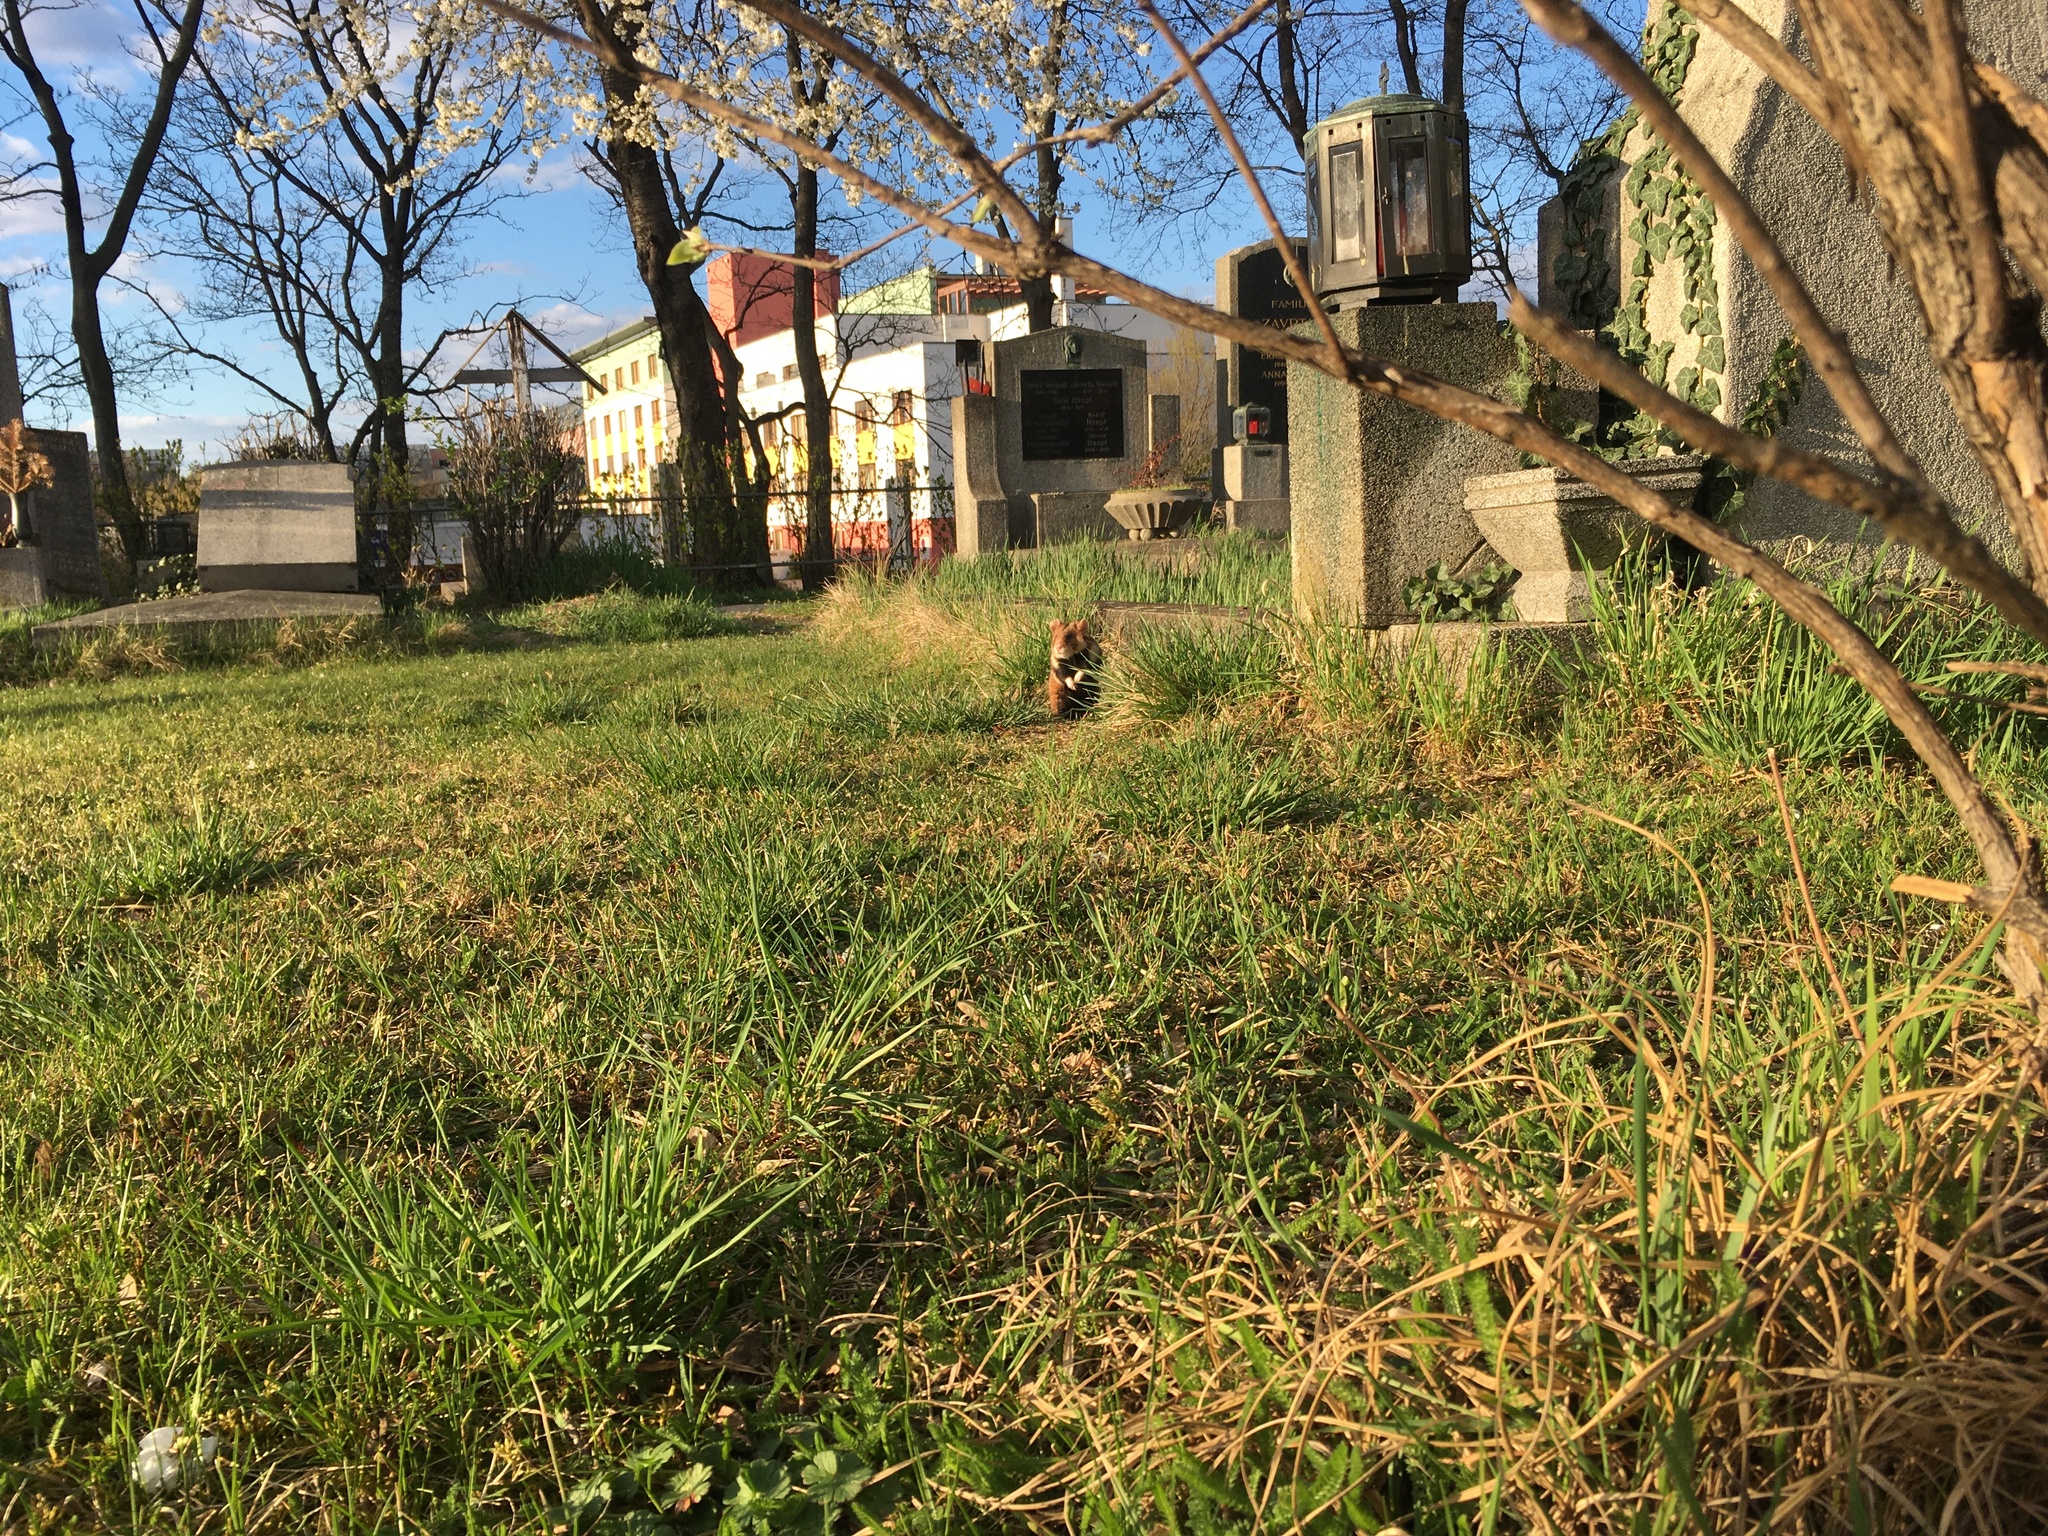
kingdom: Animalia
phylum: Chordata
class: Mammalia
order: Rodentia
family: Cricetidae
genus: Cricetus
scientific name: Cricetus cricetus
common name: Common hamster
